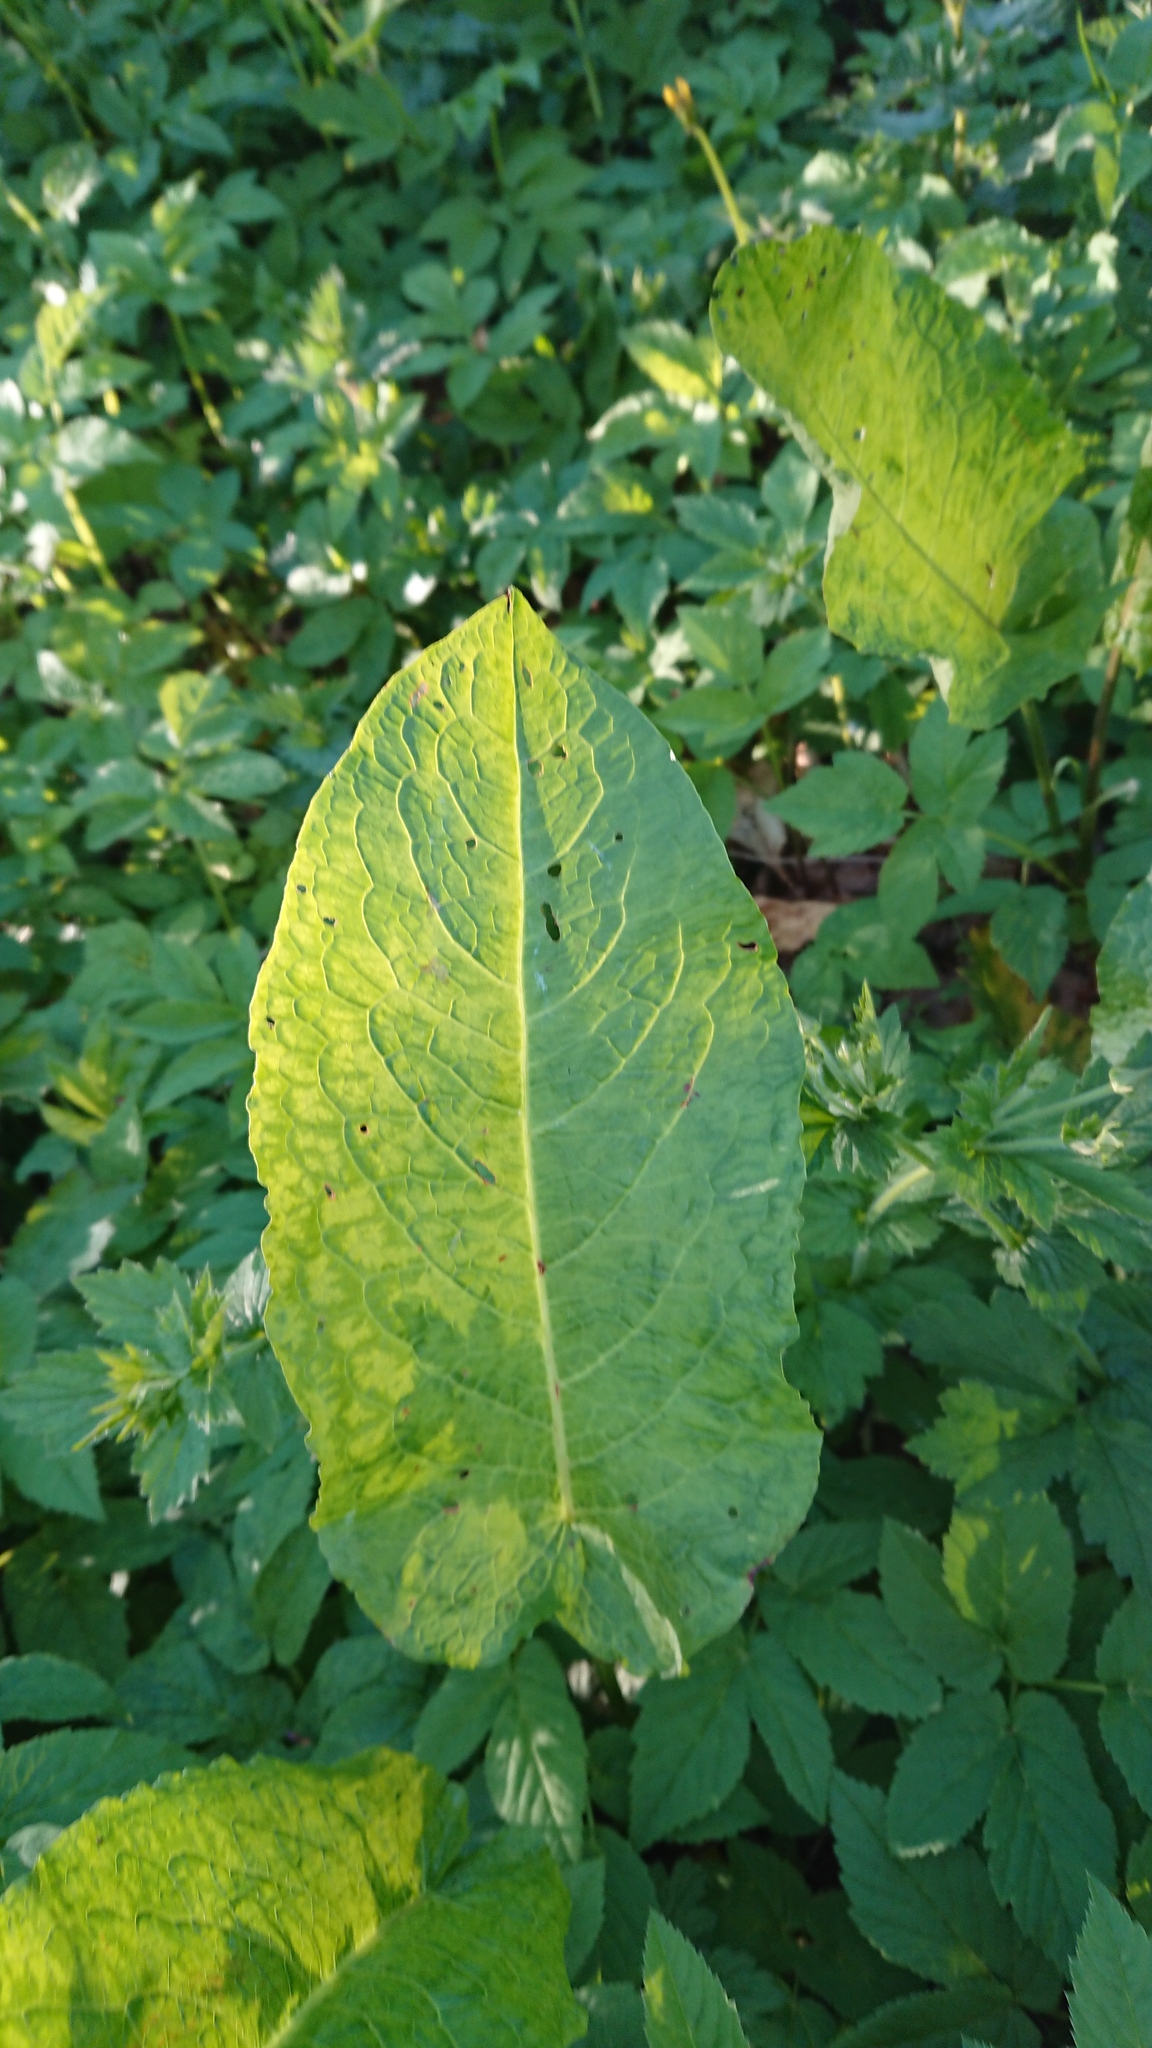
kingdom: Plantae
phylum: Tracheophyta
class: Magnoliopsida
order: Caryophyllales
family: Polygonaceae
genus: Rumex
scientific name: Rumex obtusifolius
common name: Bitter dock
